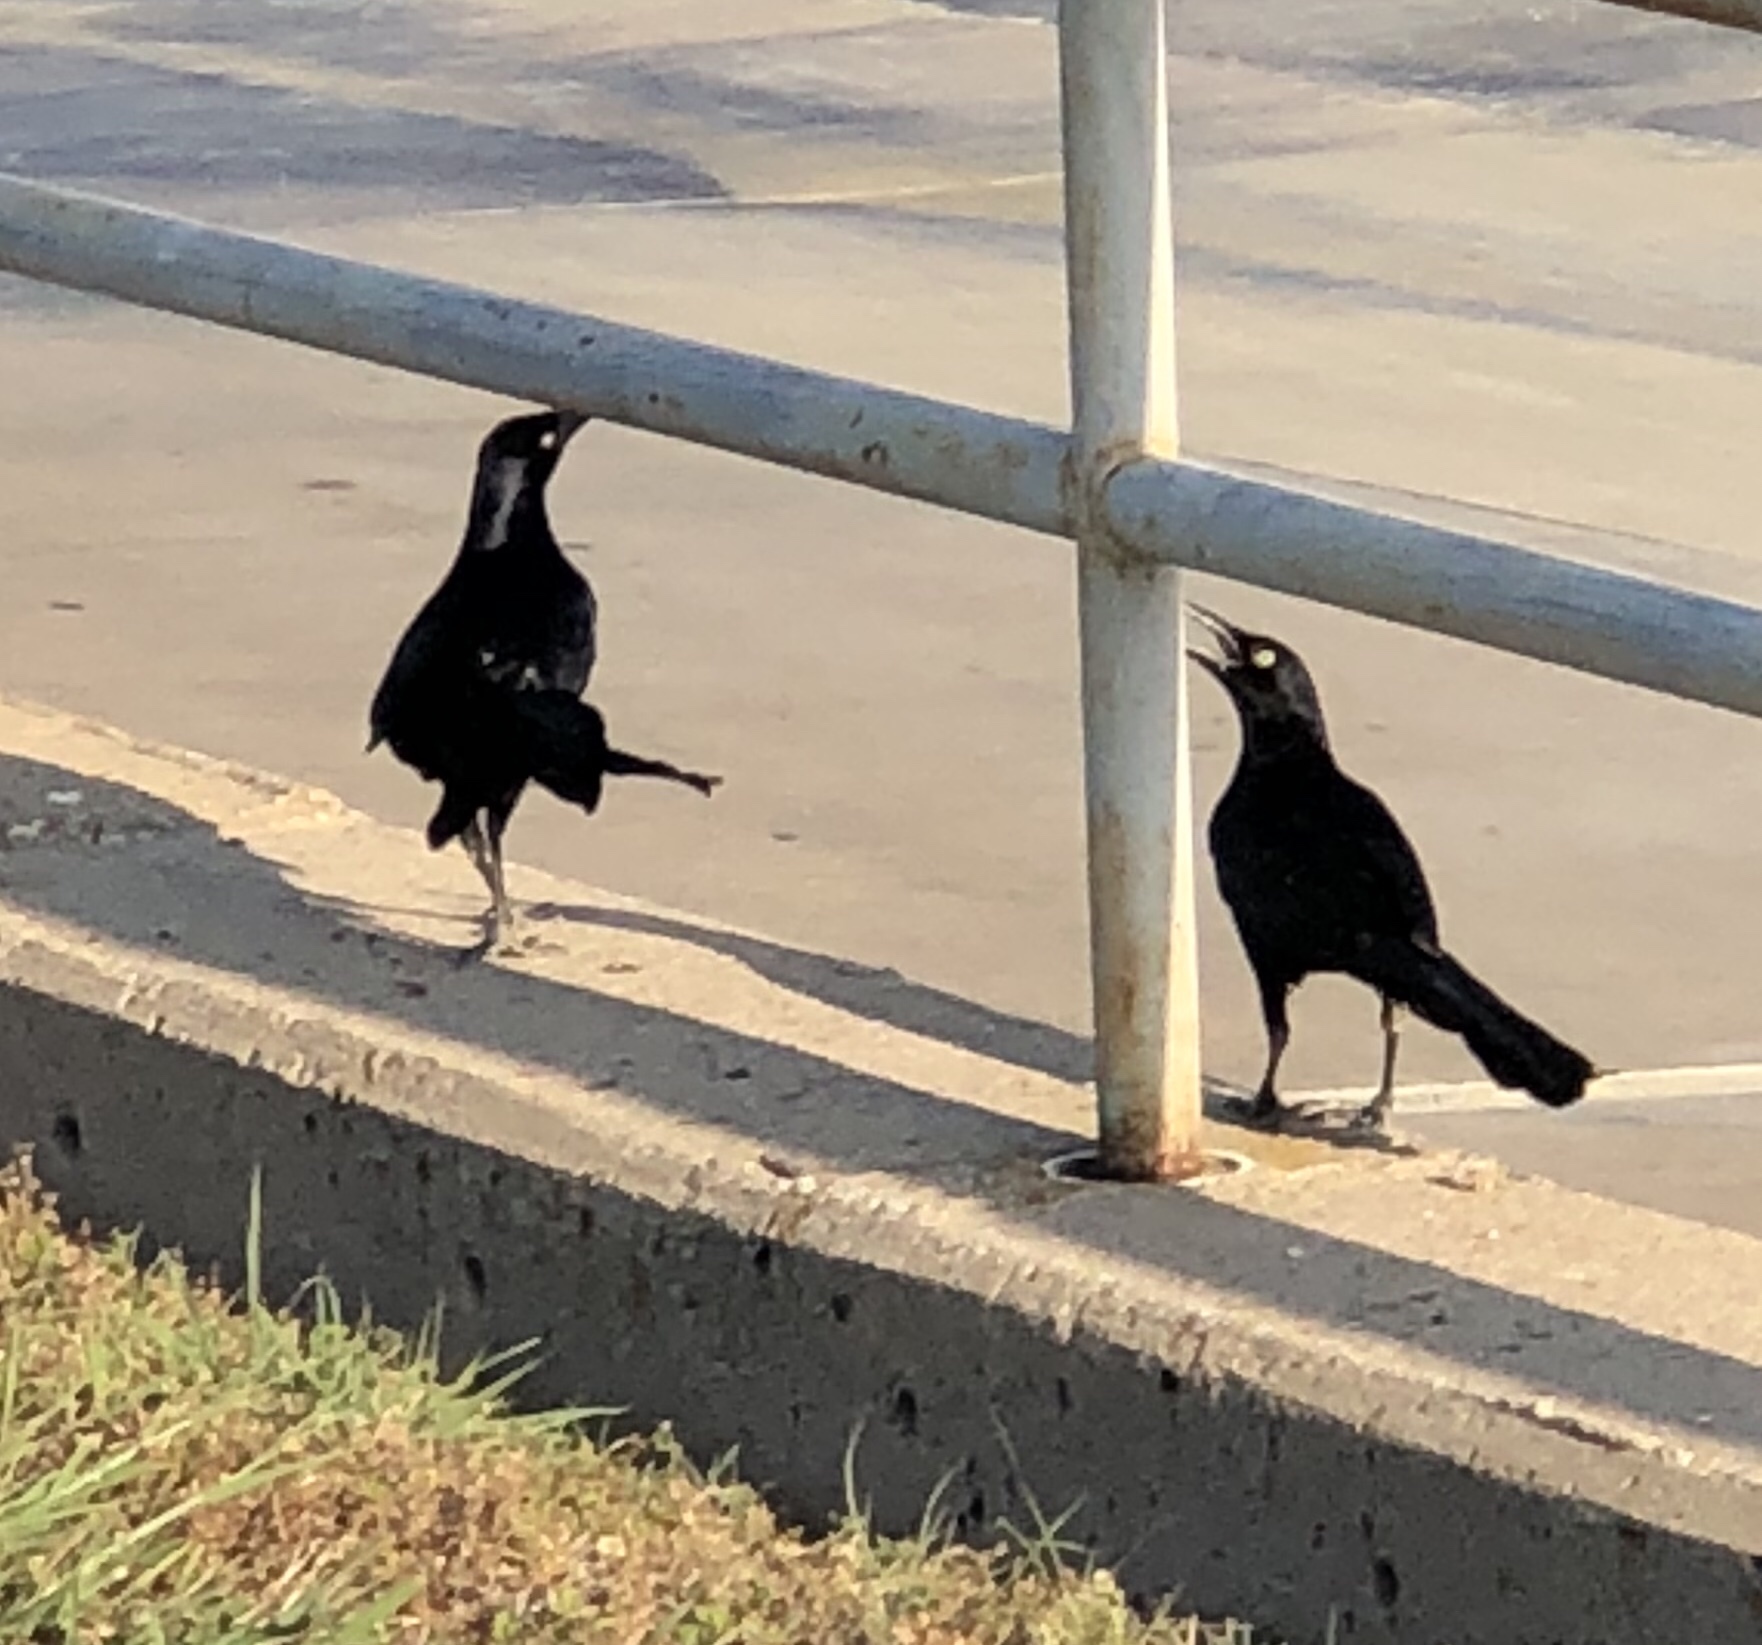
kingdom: Animalia
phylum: Chordata
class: Aves
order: Passeriformes
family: Icteridae
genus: Quiscalus
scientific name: Quiscalus mexicanus
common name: Great-tailed grackle
